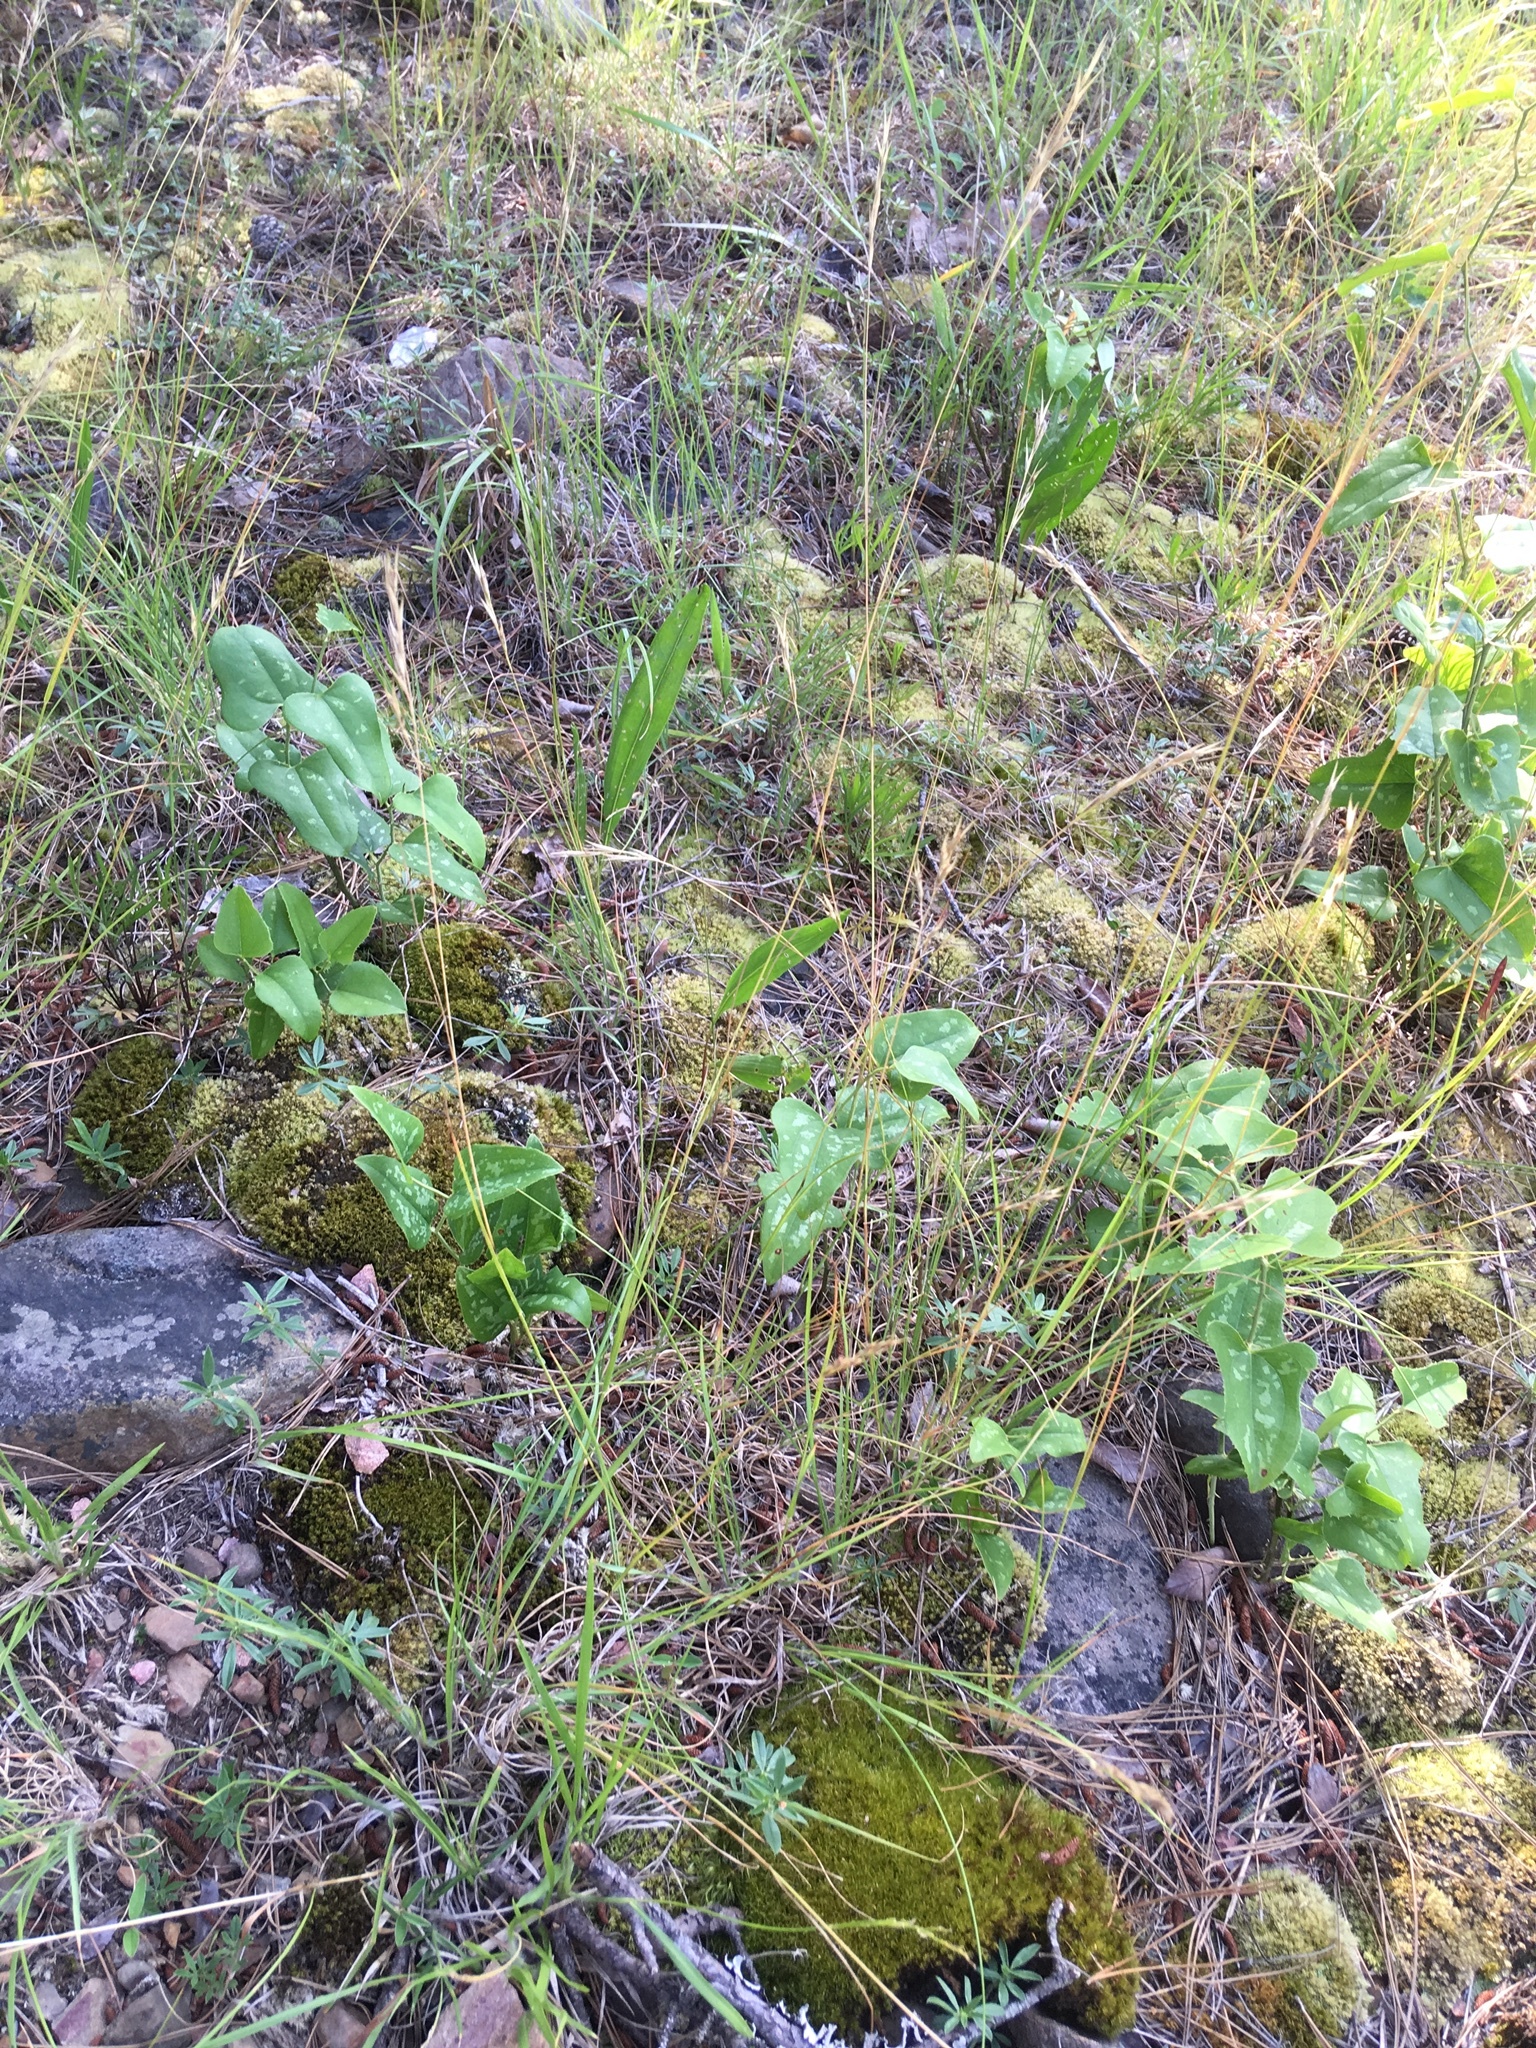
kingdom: Plantae
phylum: Tracheophyta
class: Liliopsida
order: Liliales
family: Smilacaceae
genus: Smilax
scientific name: Smilax bona-nox
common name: Catbrier
